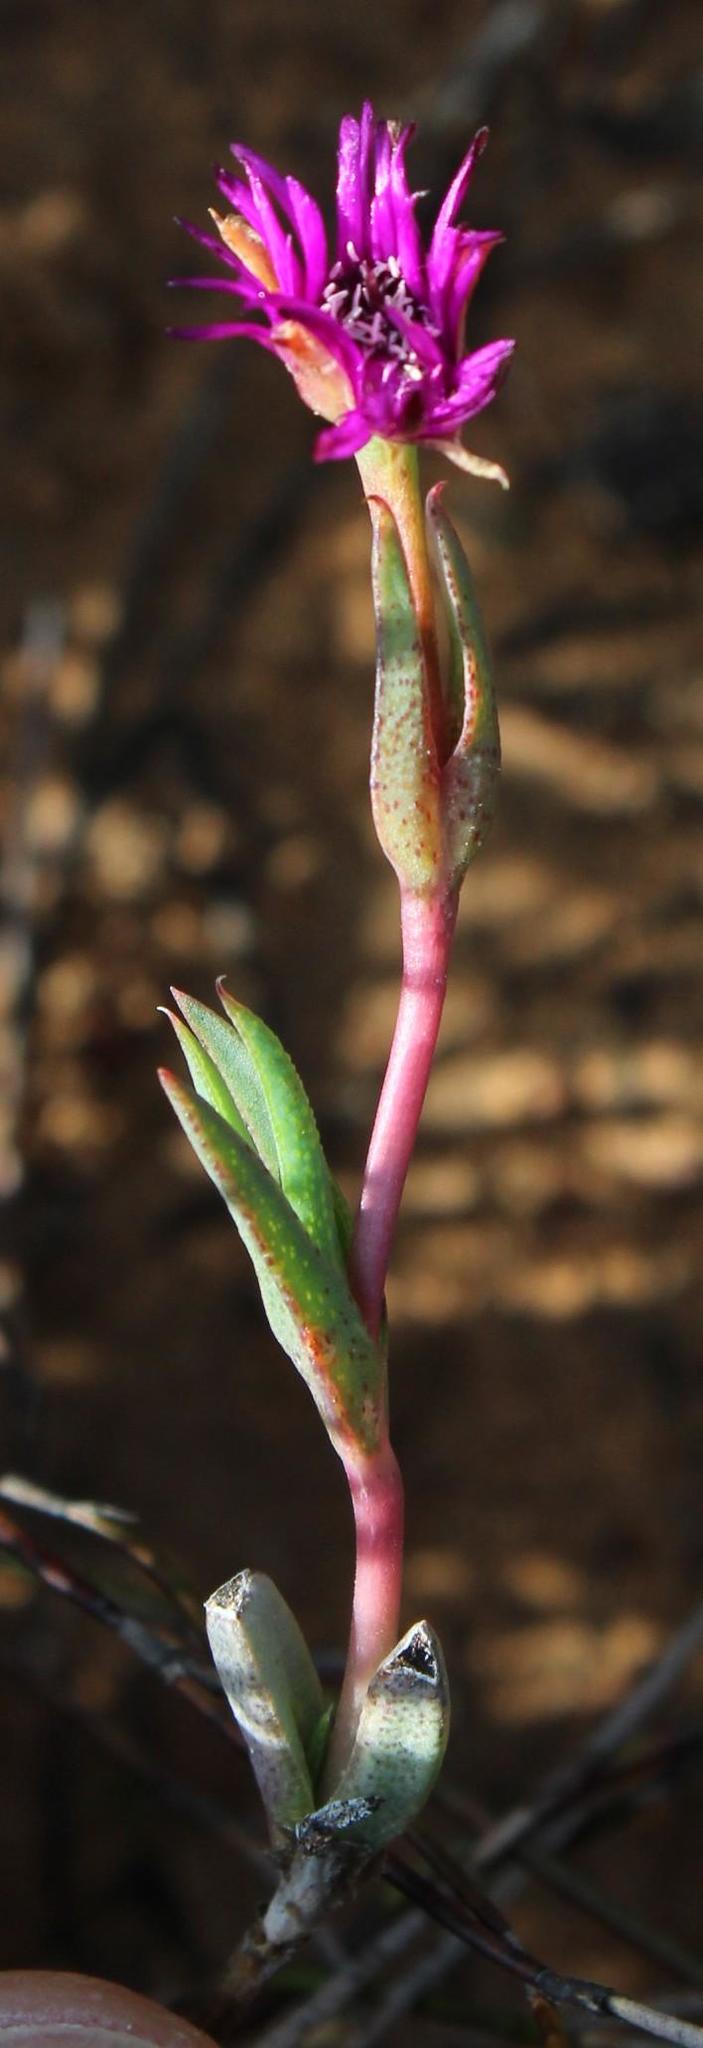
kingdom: Plantae
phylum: Tracheophyta
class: Magnoliopsida
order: Caryophyllales
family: Aizoaceae
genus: Antimima
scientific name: Antimima emarcescens
